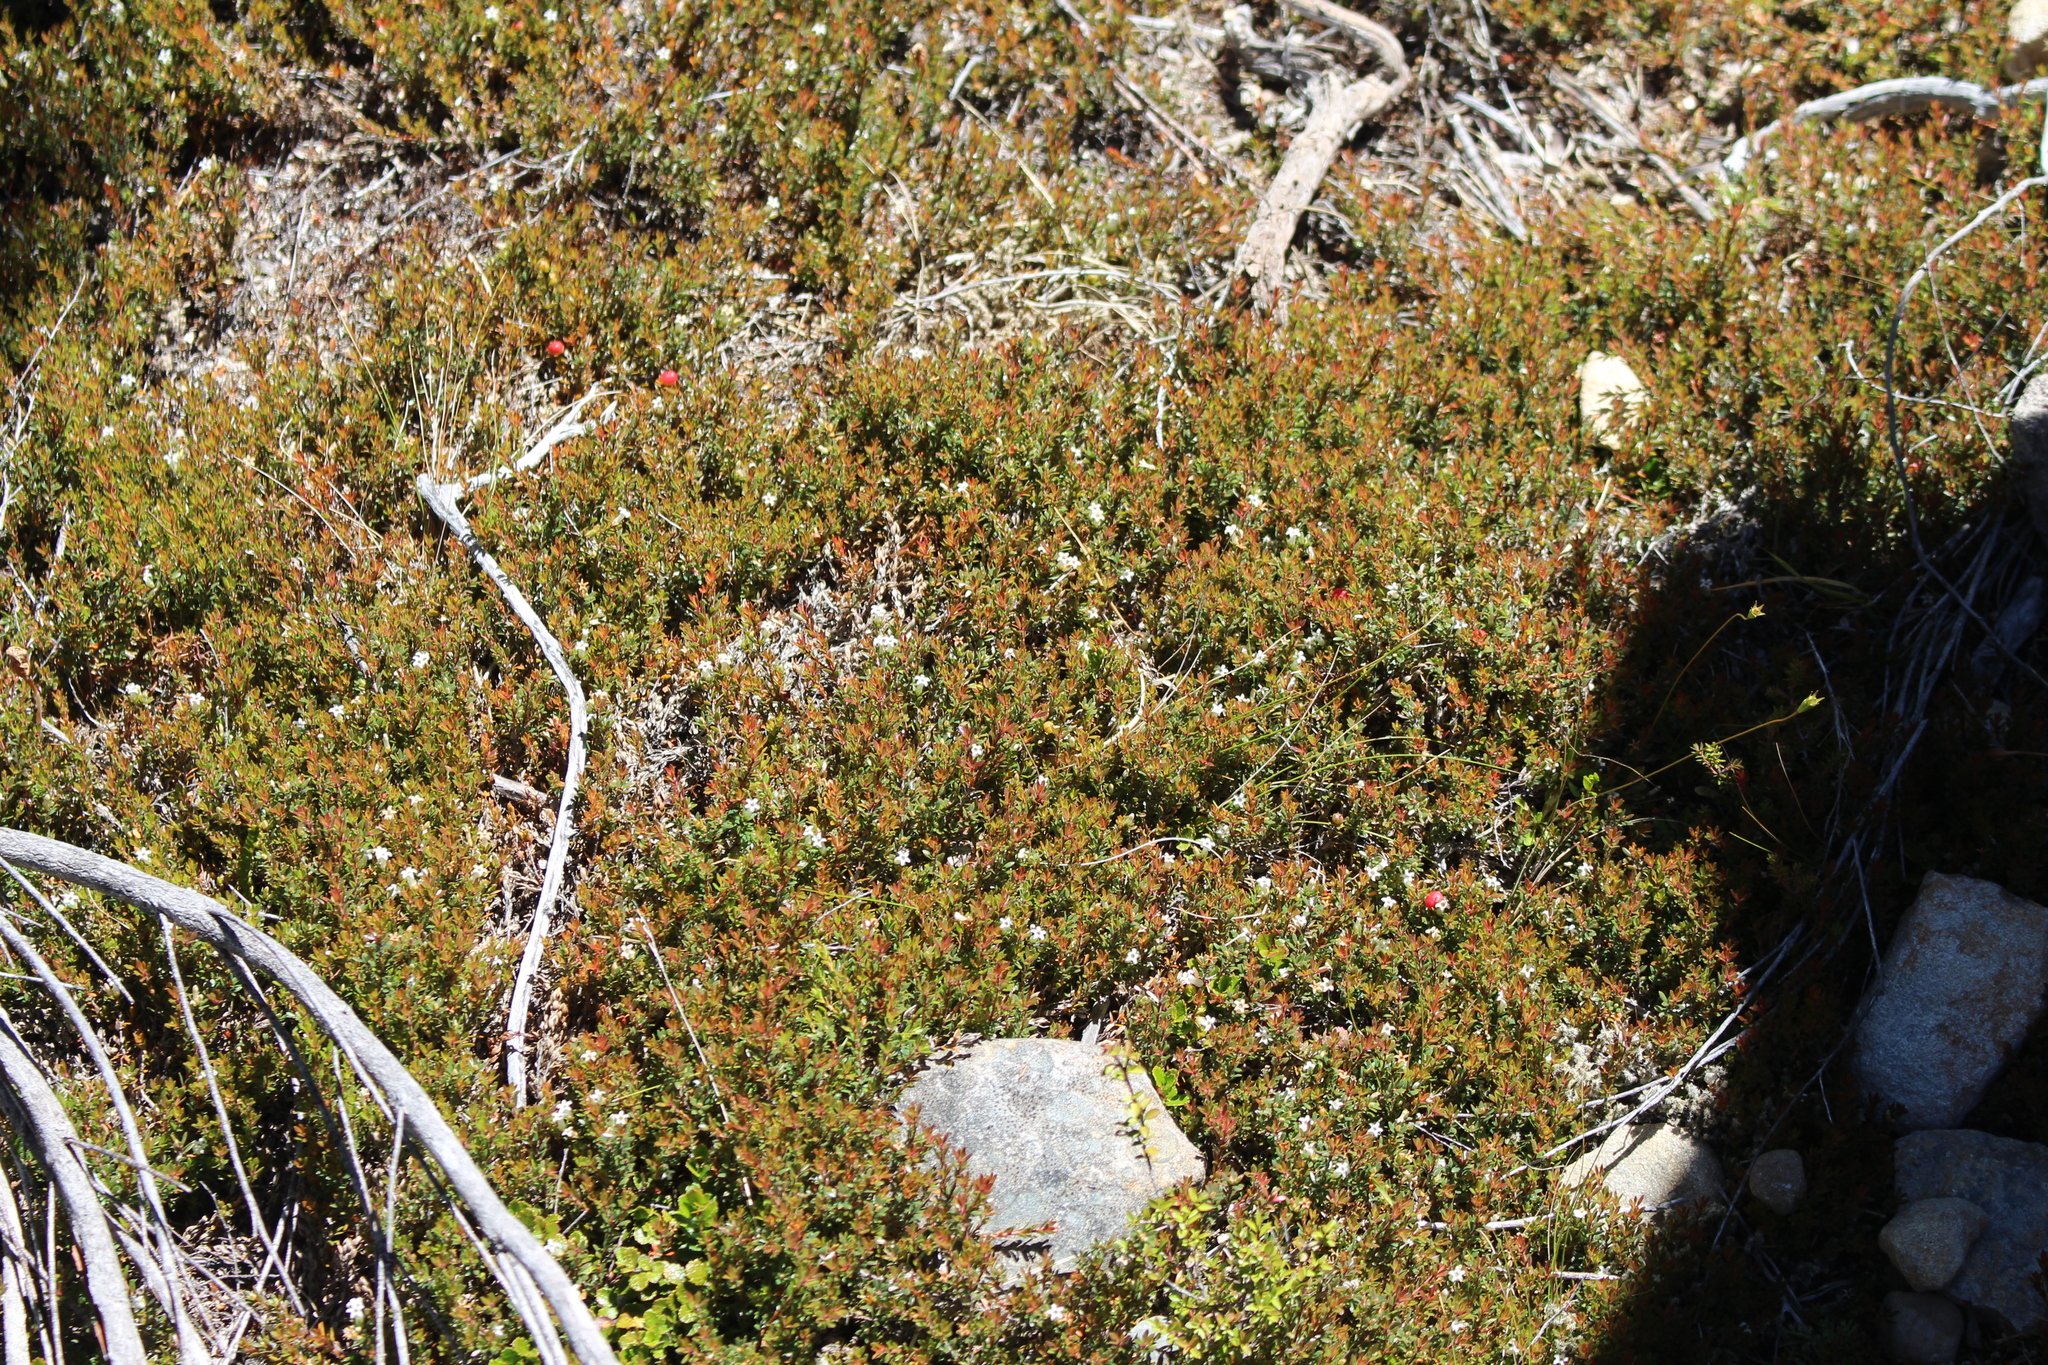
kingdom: Plantae
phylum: Tracheophyta
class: Magnoliopsida
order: Ericales
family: Ericaceae
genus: Pentachondra
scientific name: Pentachondra pumila
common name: Carpet-heath
